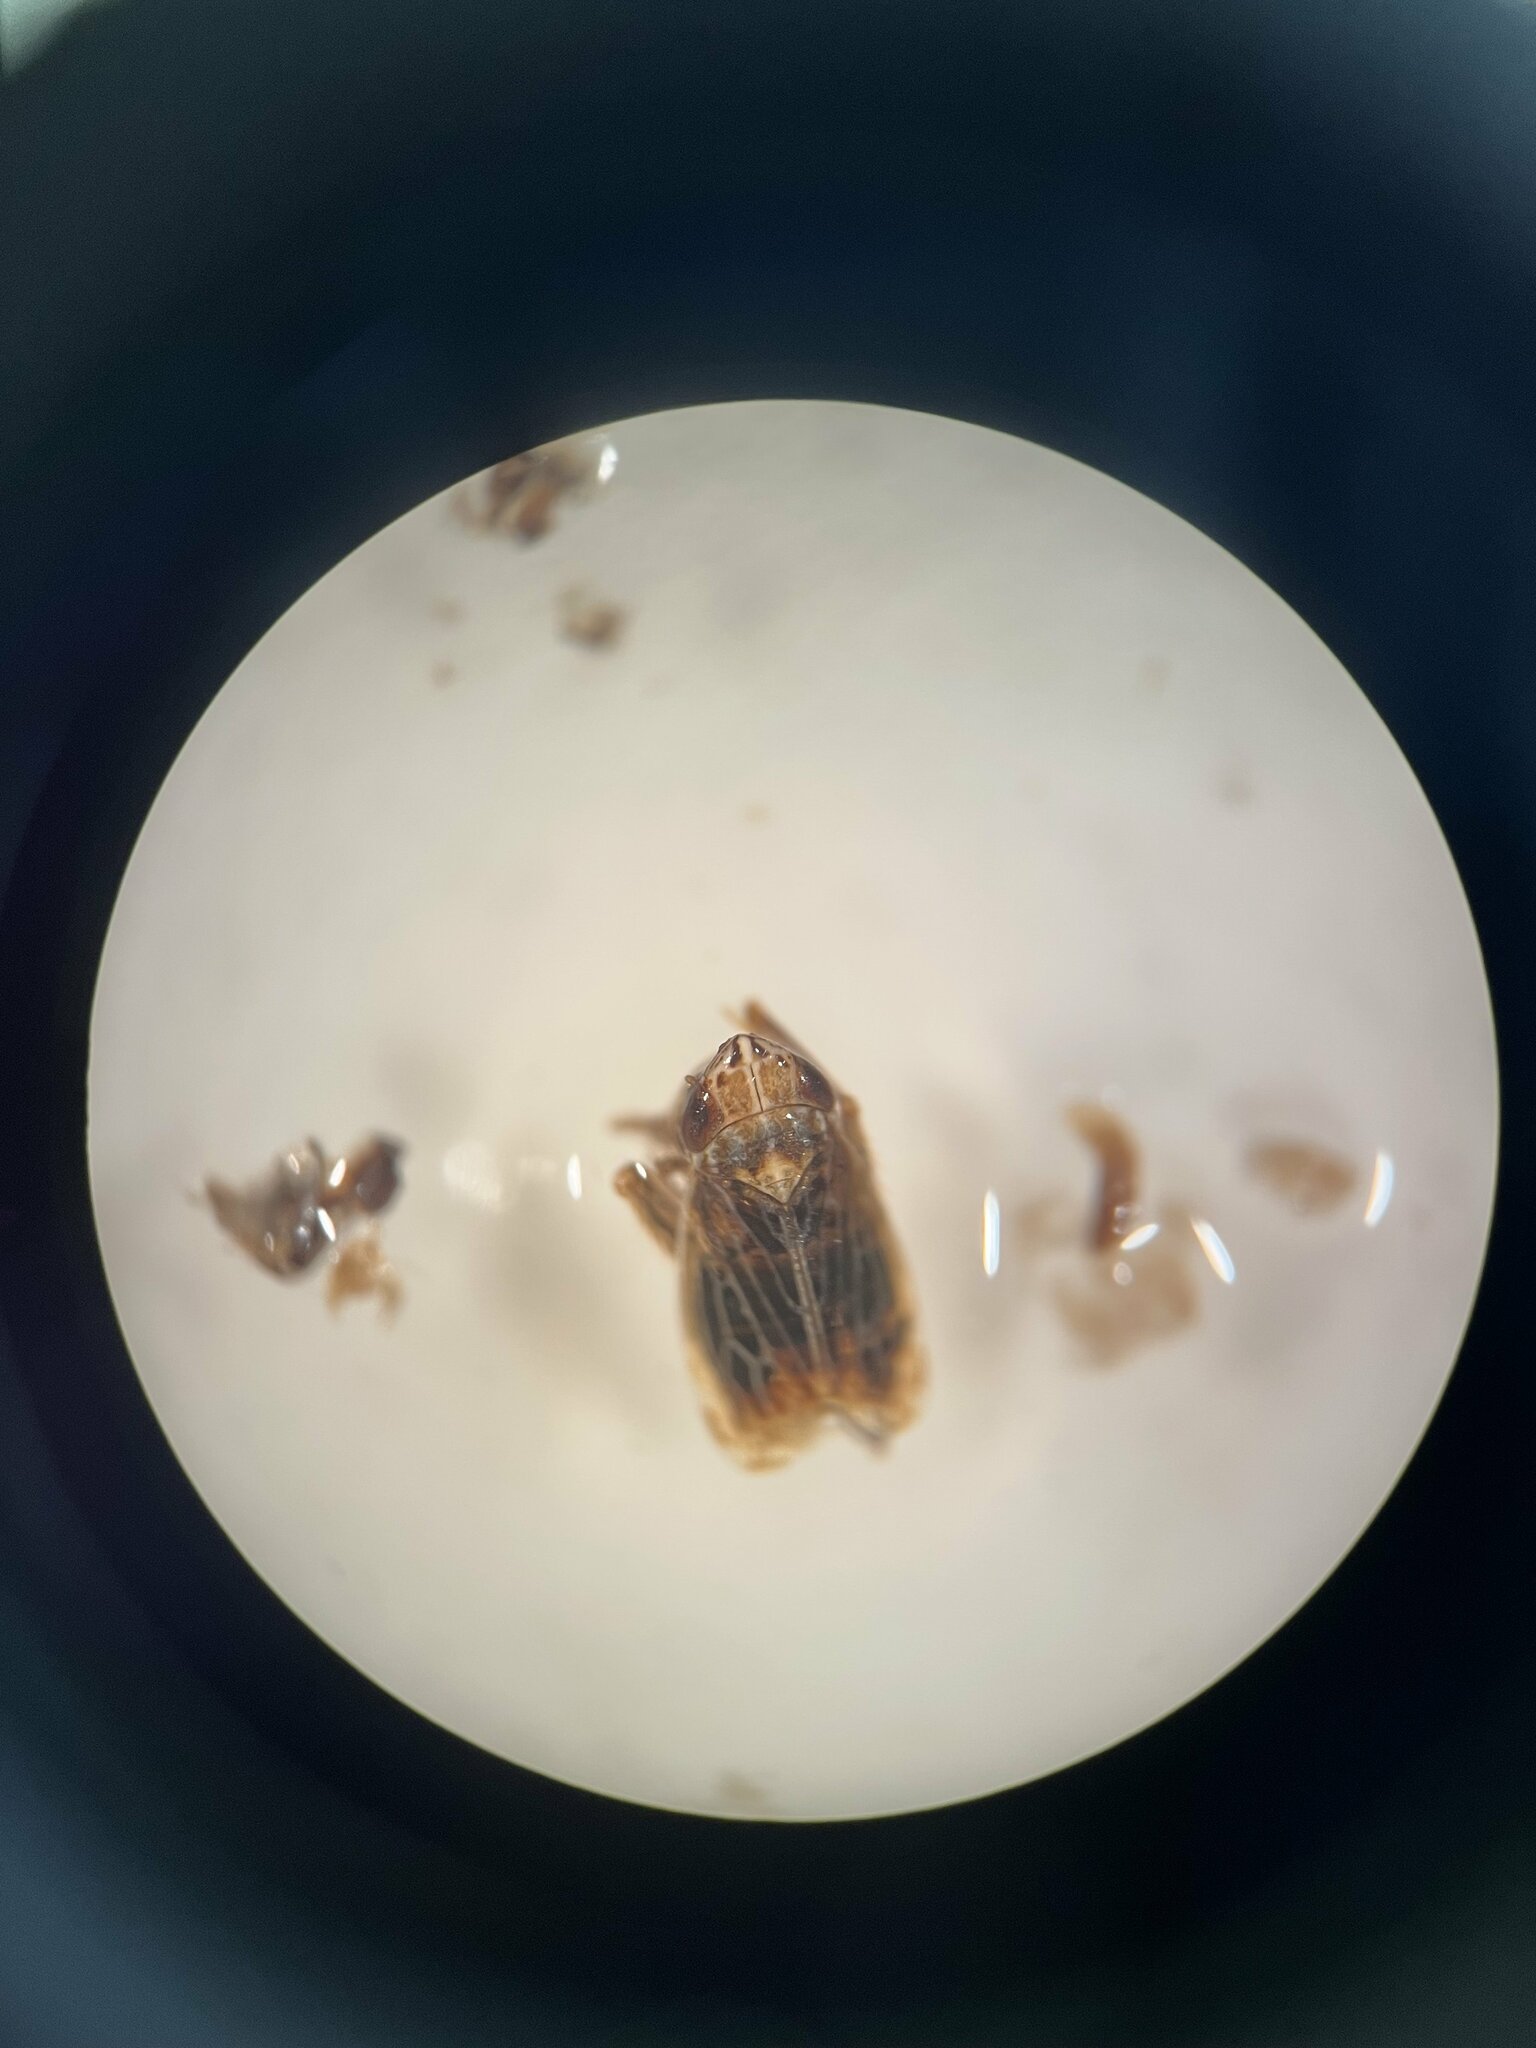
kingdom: Animalia
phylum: Arthropoda
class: Insecta
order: Hemiptera
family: Cicadellidae
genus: Turrutus
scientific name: Turrutus socialis
